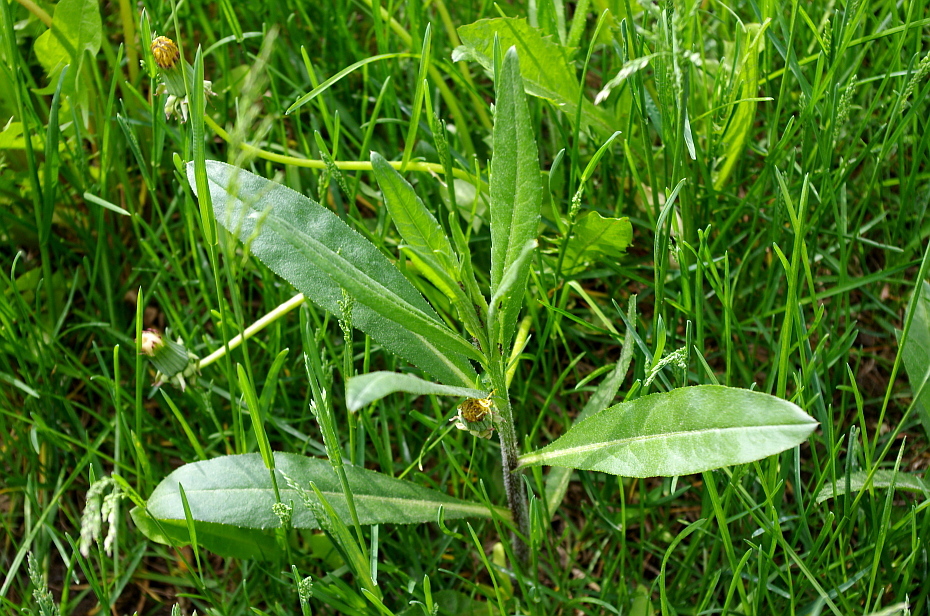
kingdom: Plantae
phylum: Tracheophyta
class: Magnoliopsida
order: Asterales
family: Asteraceae
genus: Cirsium
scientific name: Cirsium arvense
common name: Creeping thistle
